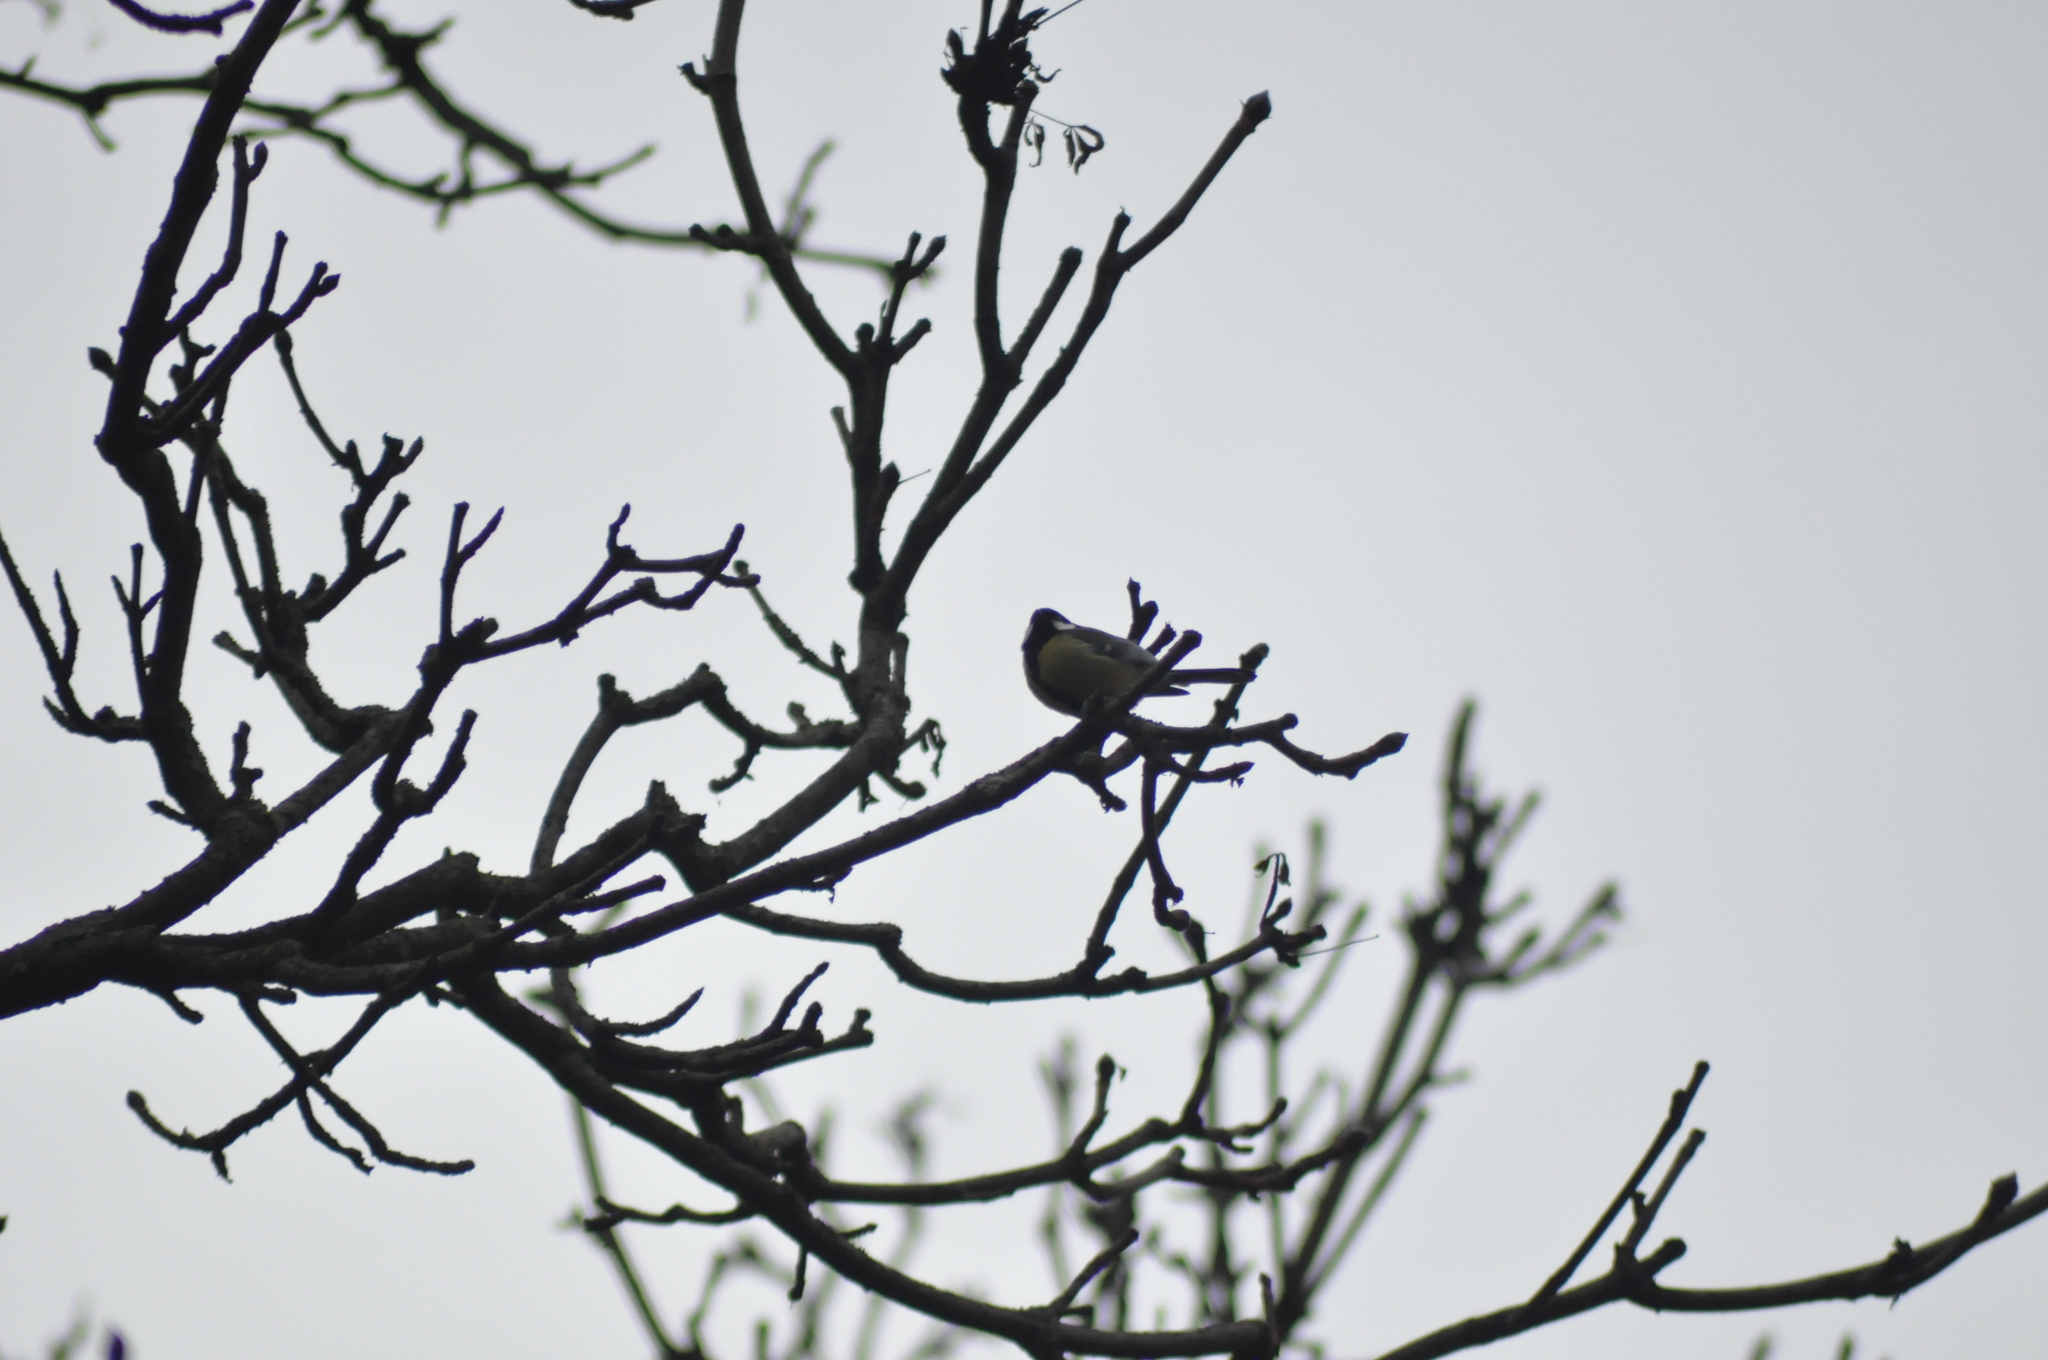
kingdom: Animalia
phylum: Chordata
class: Aves
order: Passeriformes
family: Paridae
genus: Parus
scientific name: Parus major
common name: Great tit
